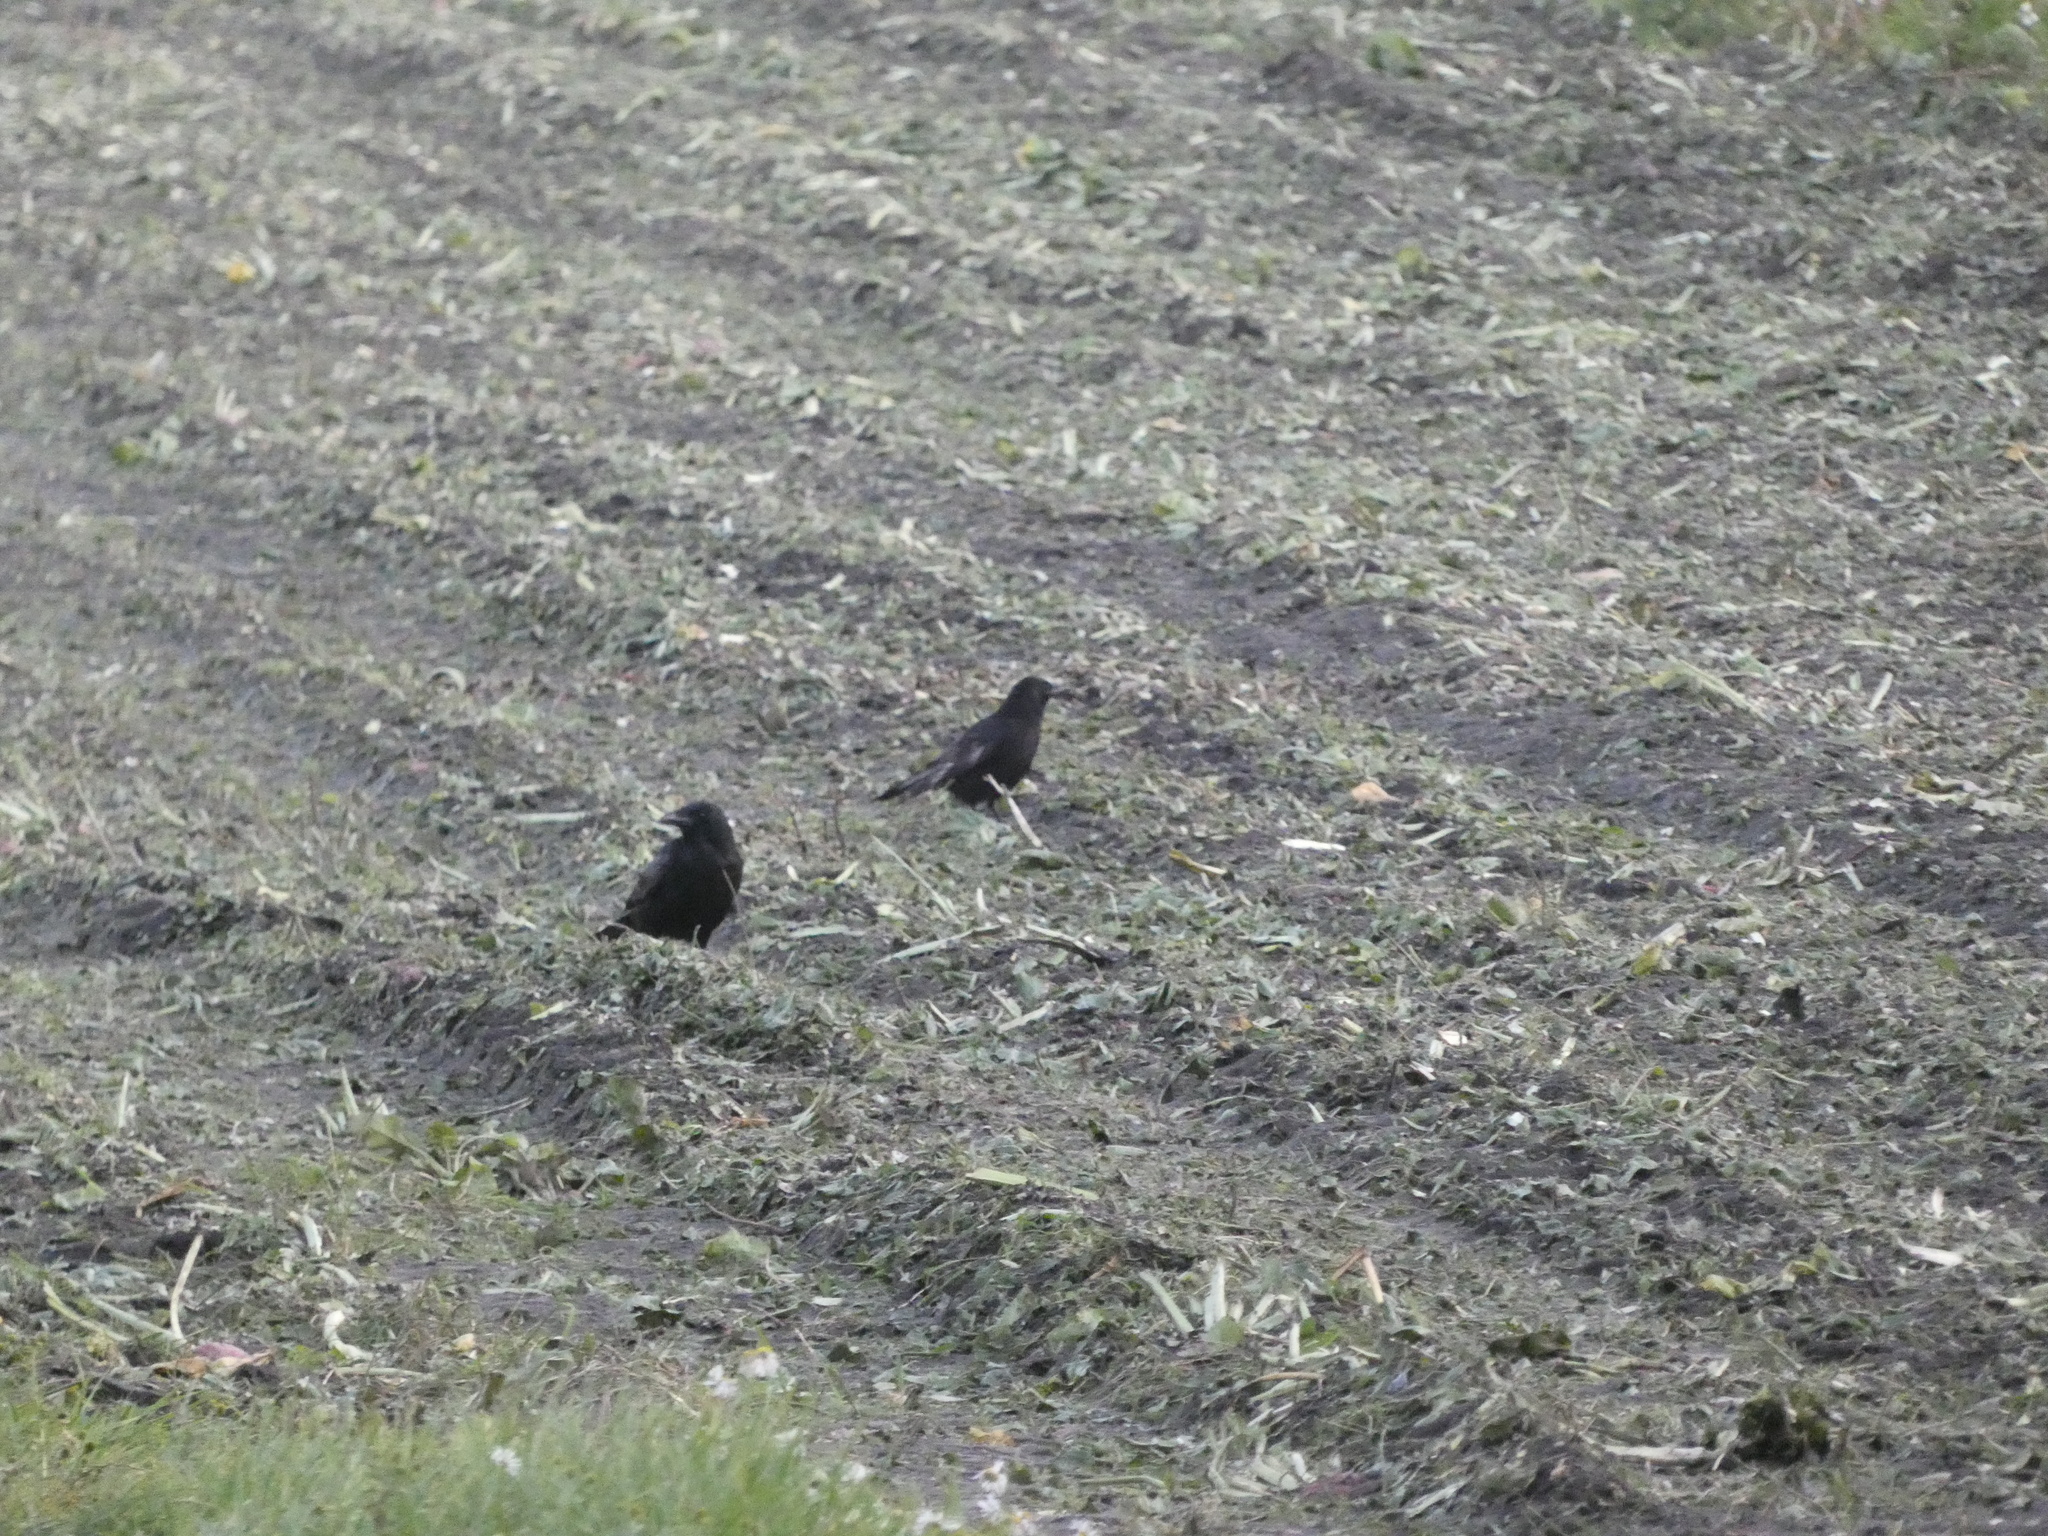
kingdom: Animalia
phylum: Chordata
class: Aves
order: Passeriformes
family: Corvidae
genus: Corvus
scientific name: Corvus corone
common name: Carrion crow
